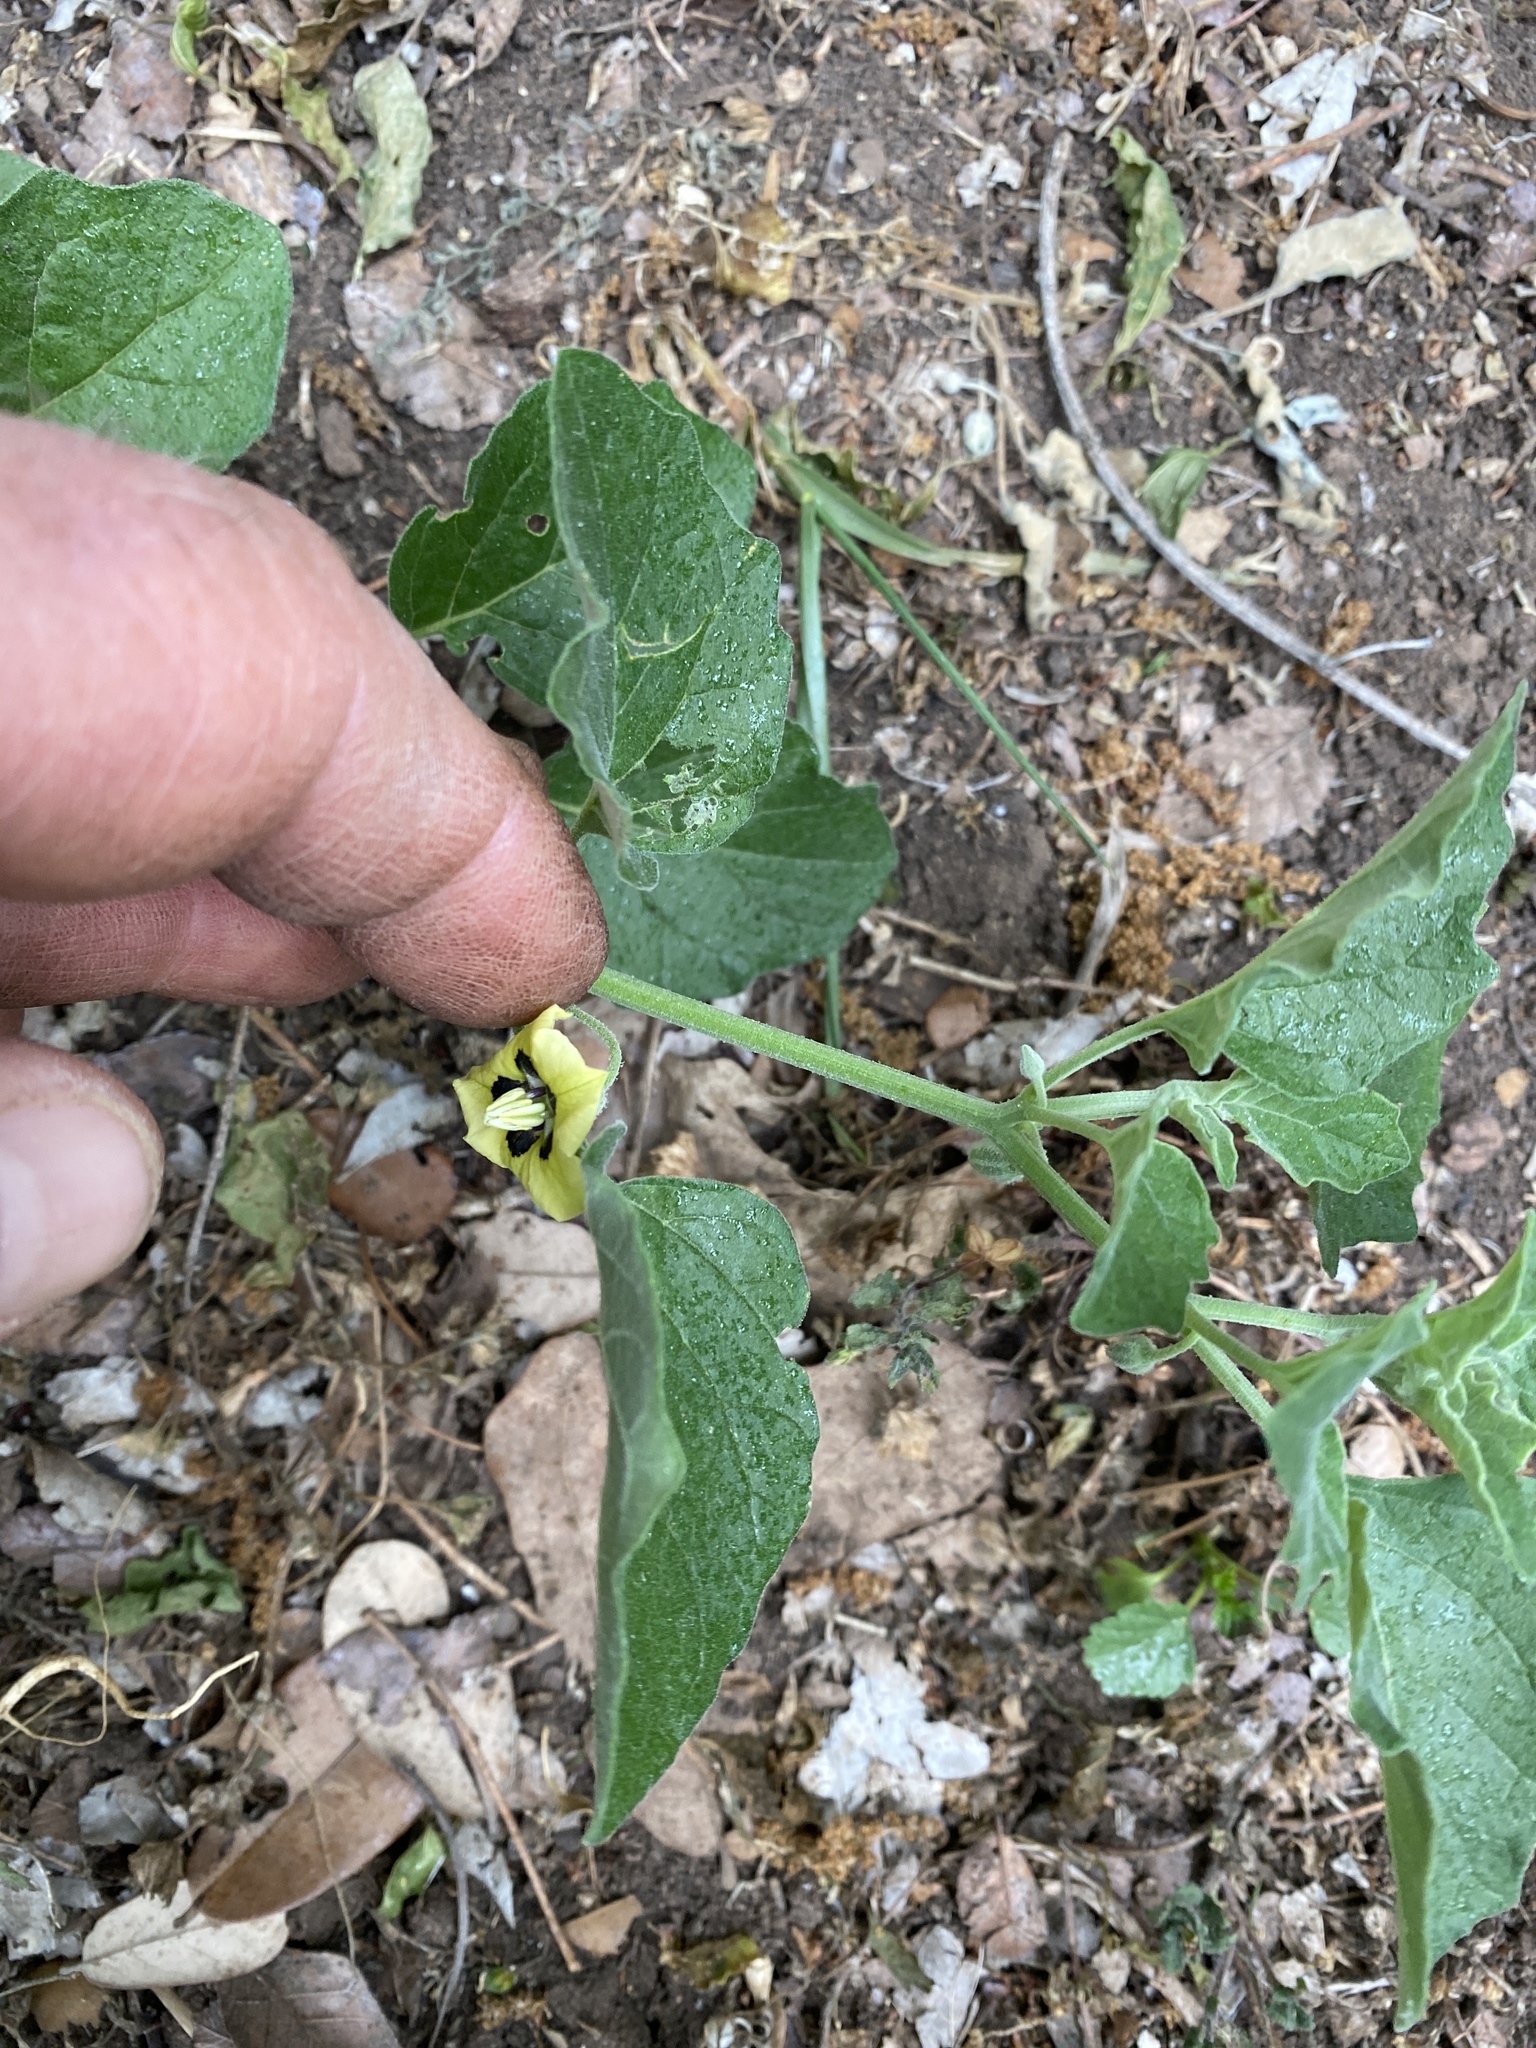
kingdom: Plantae
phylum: Tracheophyta
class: Magnoliopsida
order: Solanales
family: Solanaceae
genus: Physalis
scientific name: Physalis cinerascens
